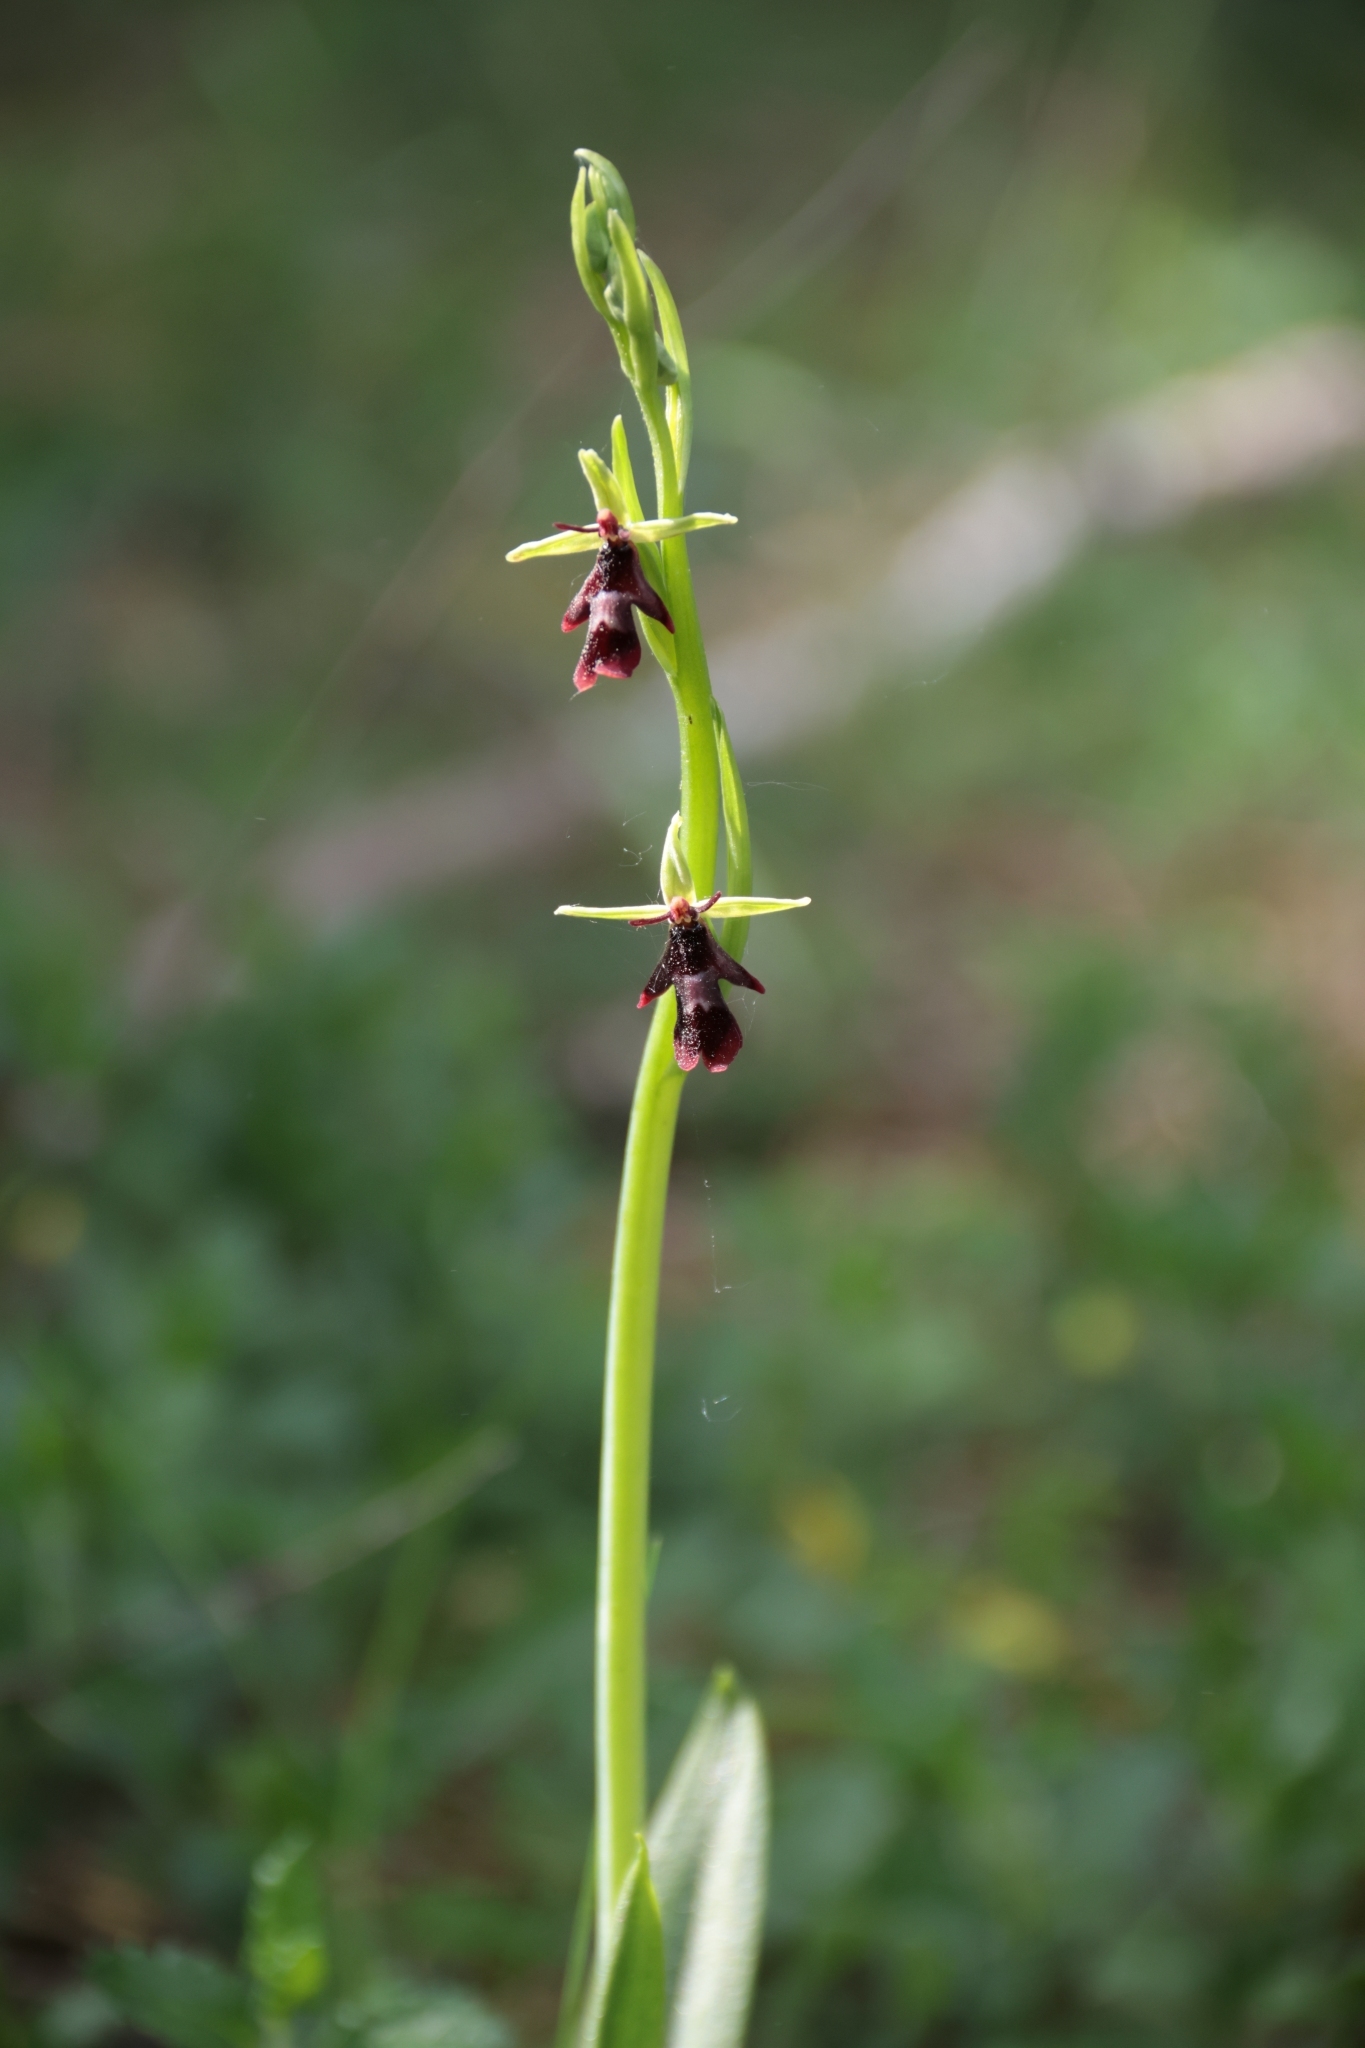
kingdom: Plantae
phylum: Tracheophyta
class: Liliopsida
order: Asparagales
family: Orchidaceae
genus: Ophrys
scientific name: Ophrys insectifera
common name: Fly orchid
